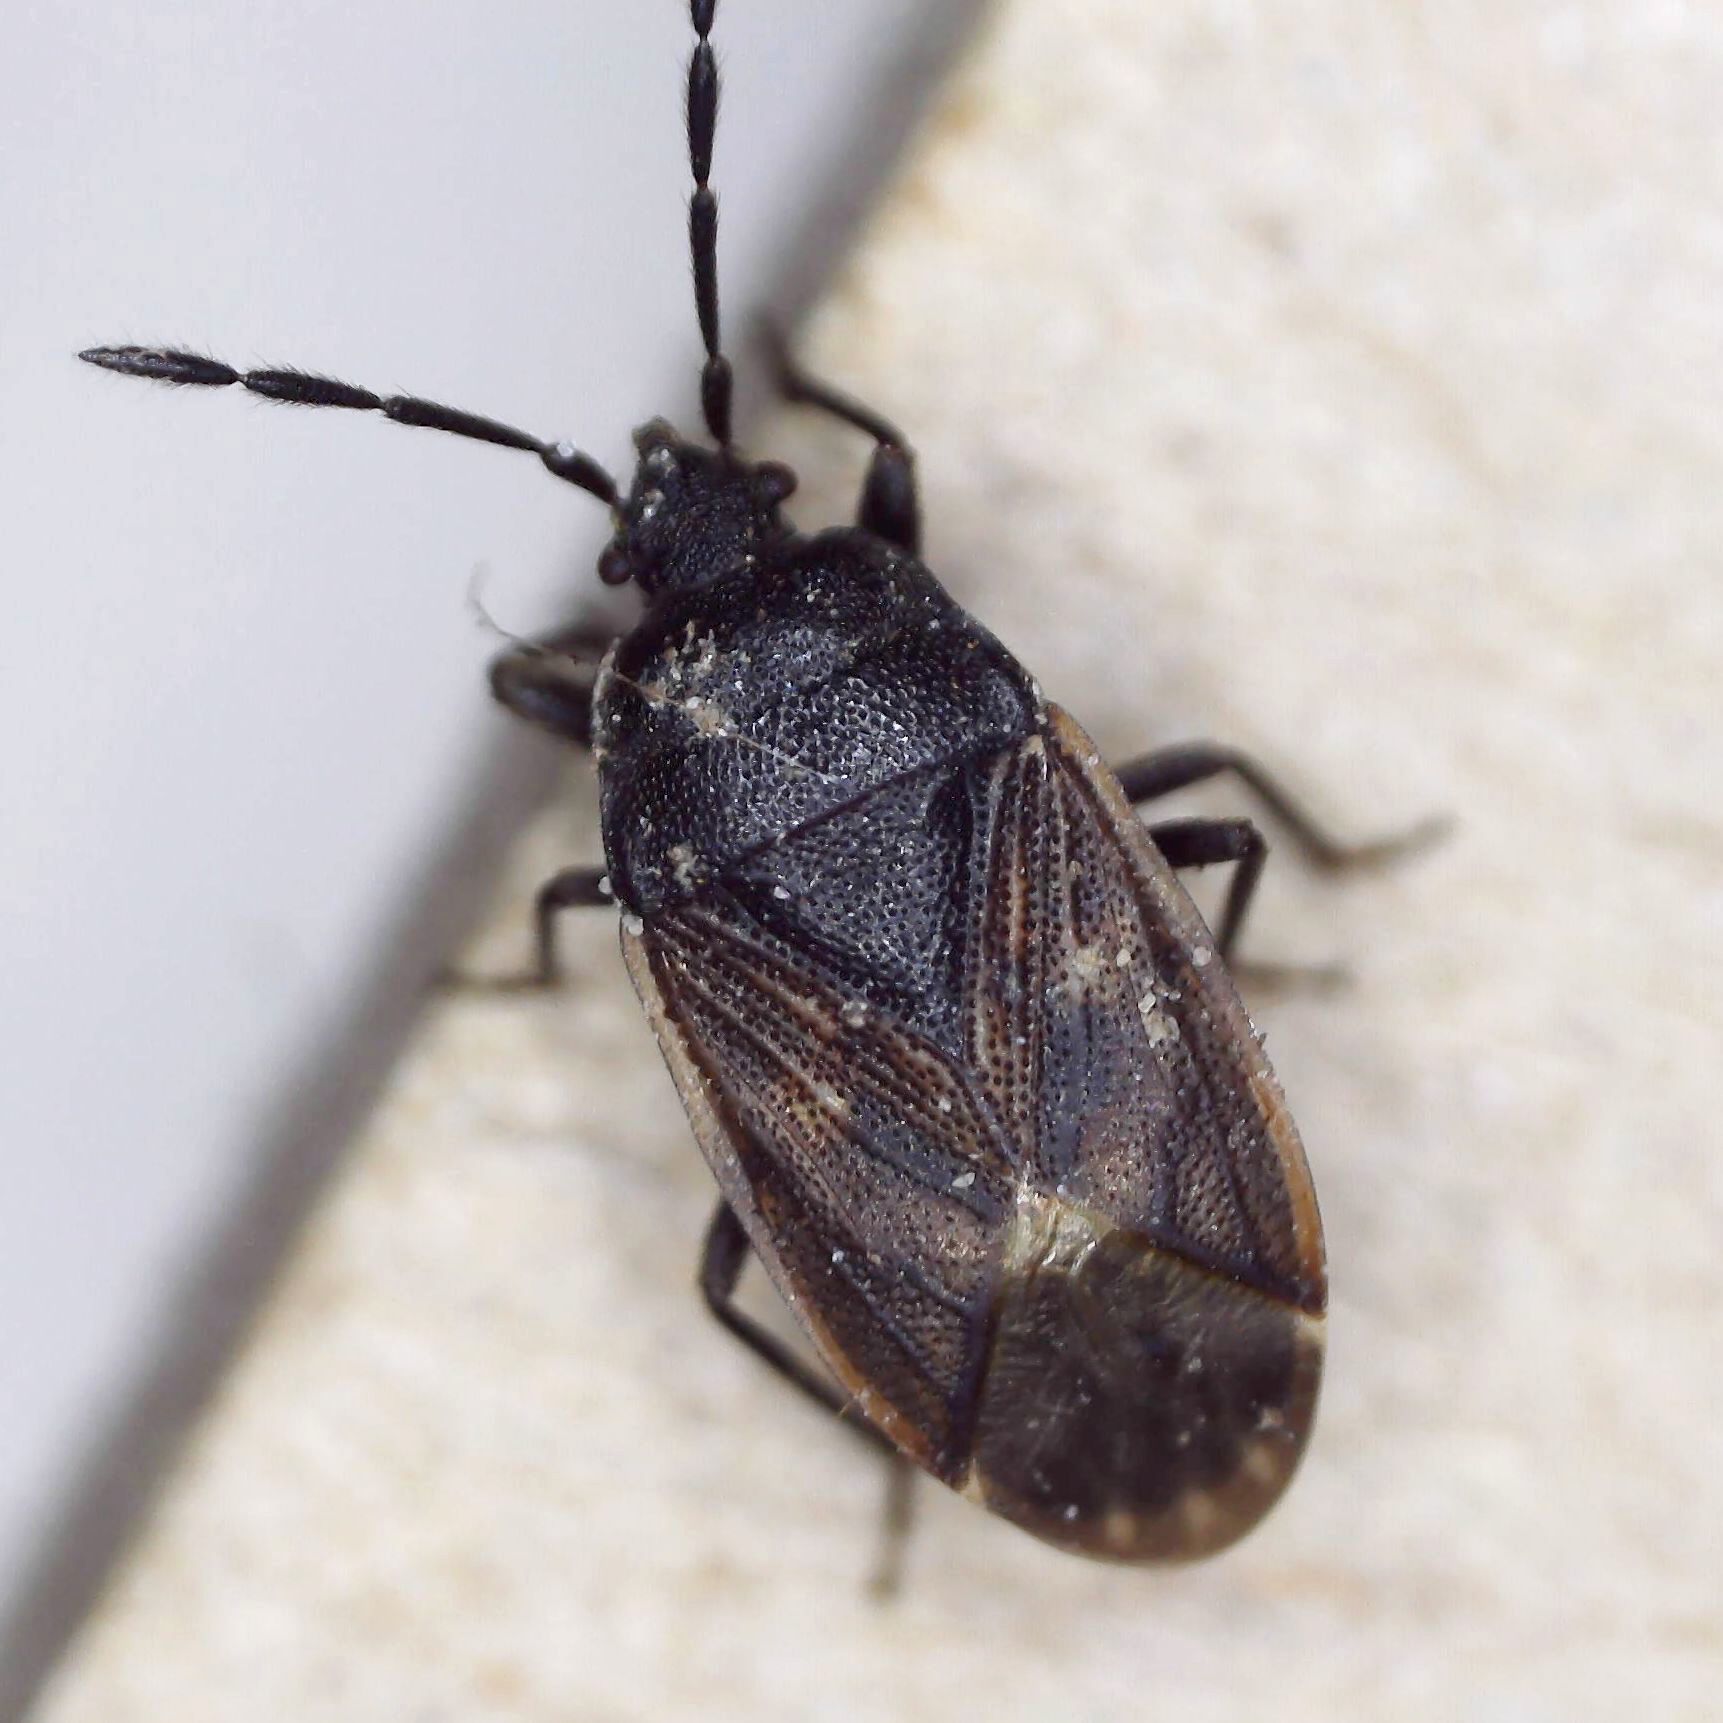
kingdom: Animalia
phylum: Arthropoda
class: Insecta
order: Hemiptera
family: Rhyparochromidae
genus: Drymus
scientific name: Drymus sylvaticus
